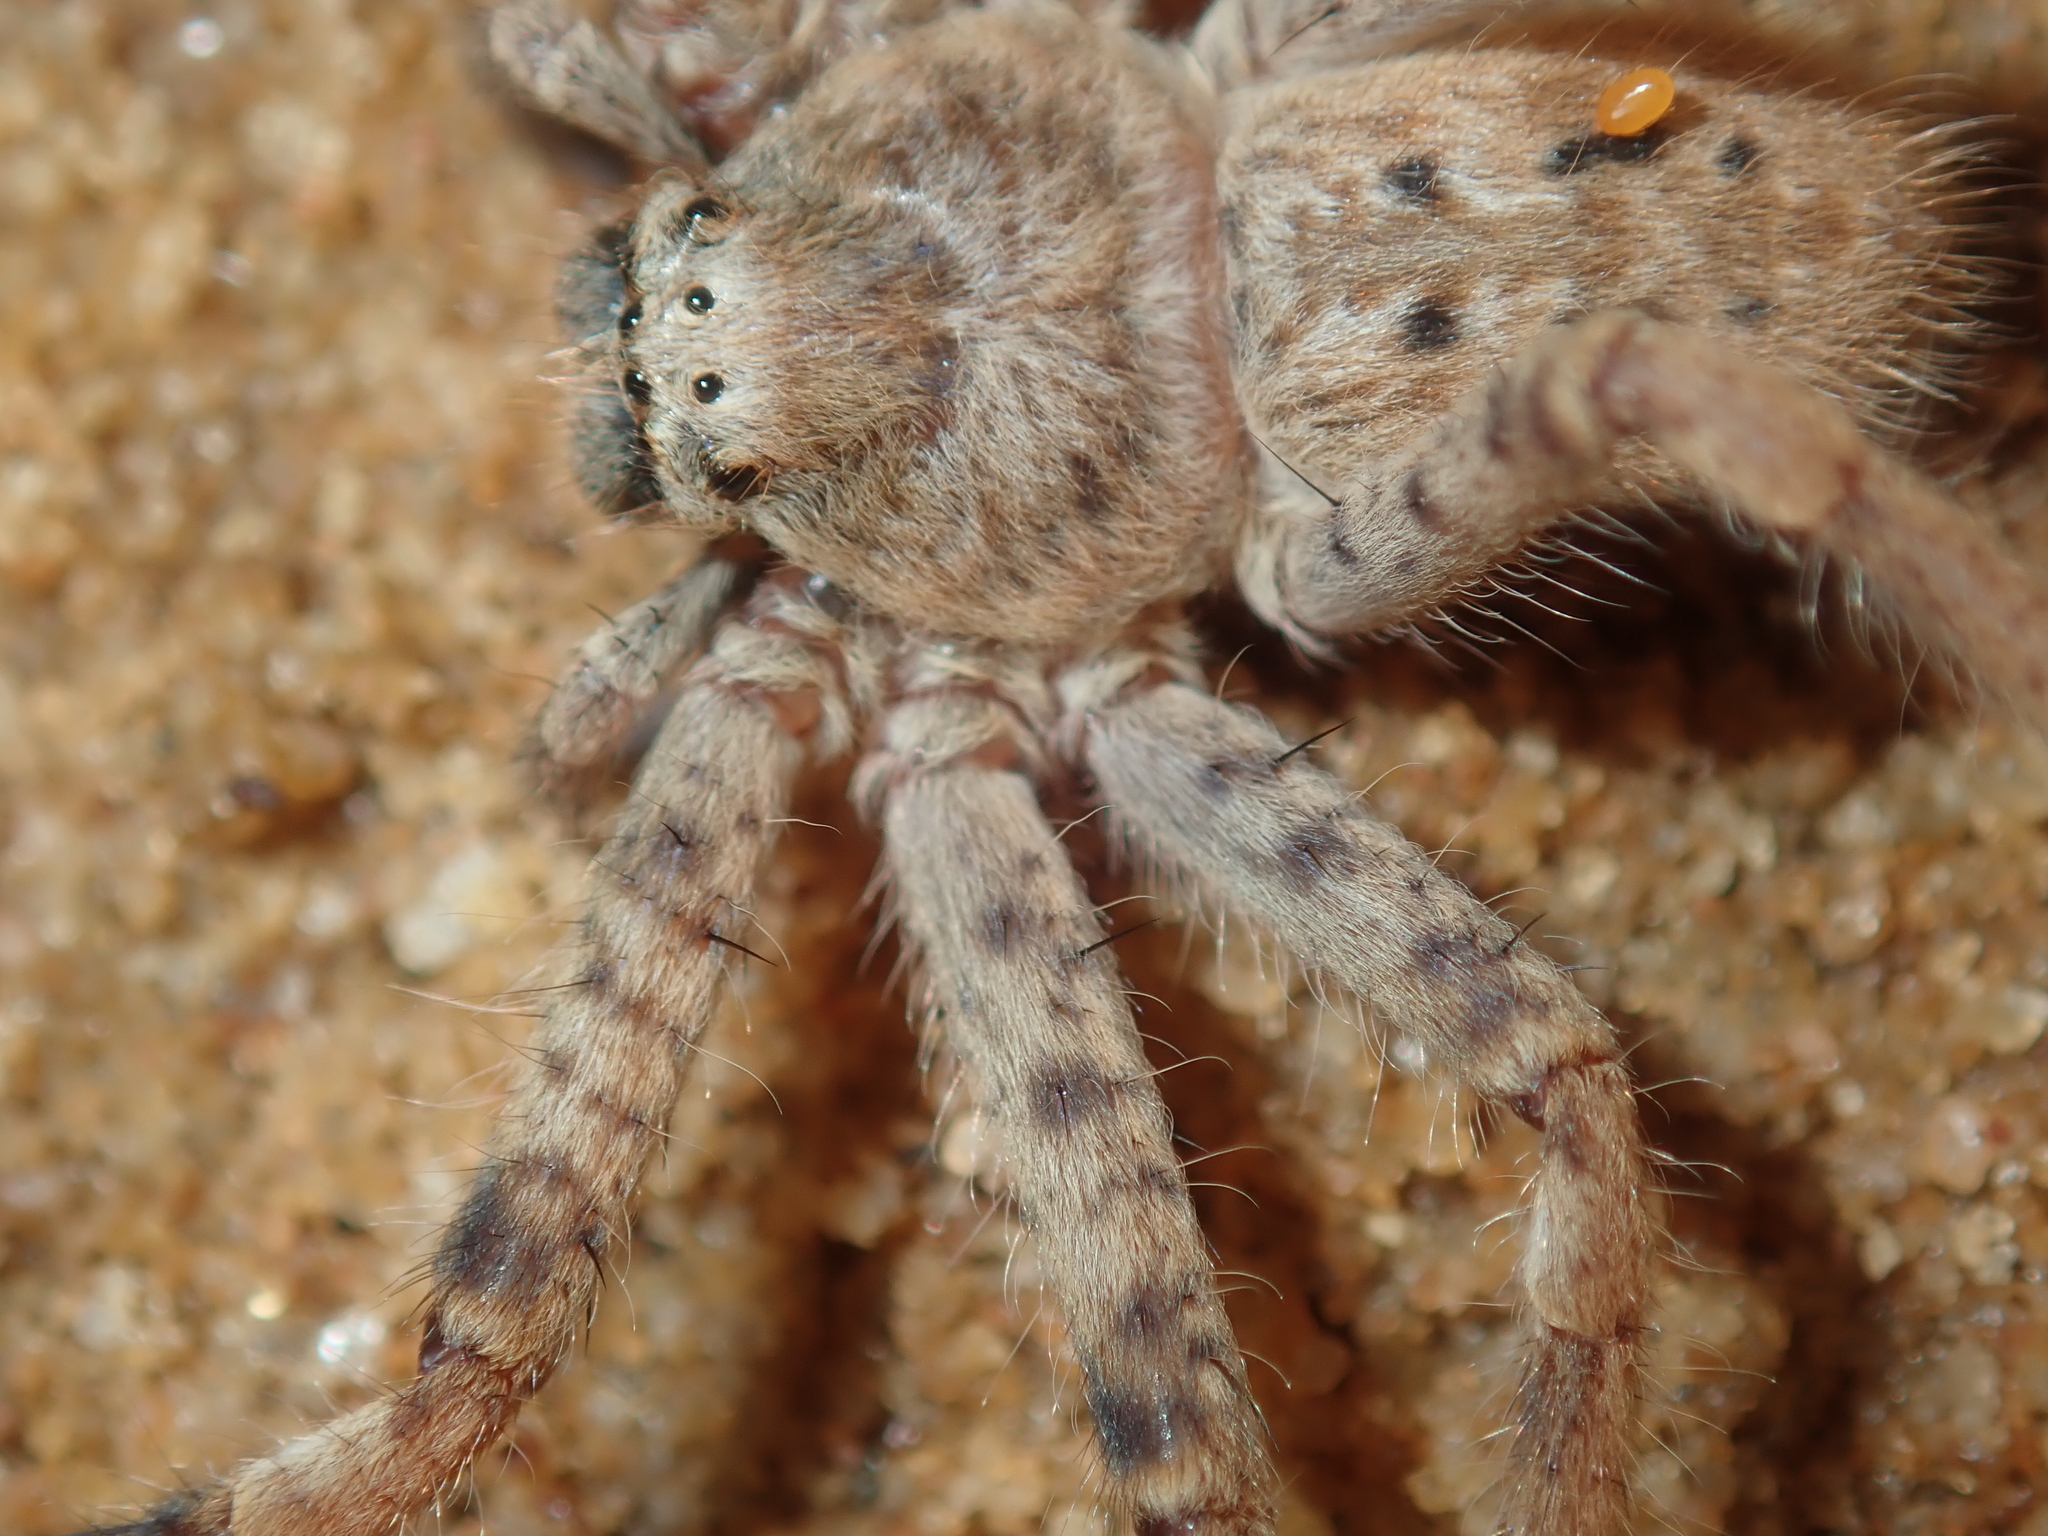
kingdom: Animalia
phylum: Arthropoda
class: Arachnida
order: Araneae
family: Sparassidae
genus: Holconia
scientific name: Holconia nigrigularis
